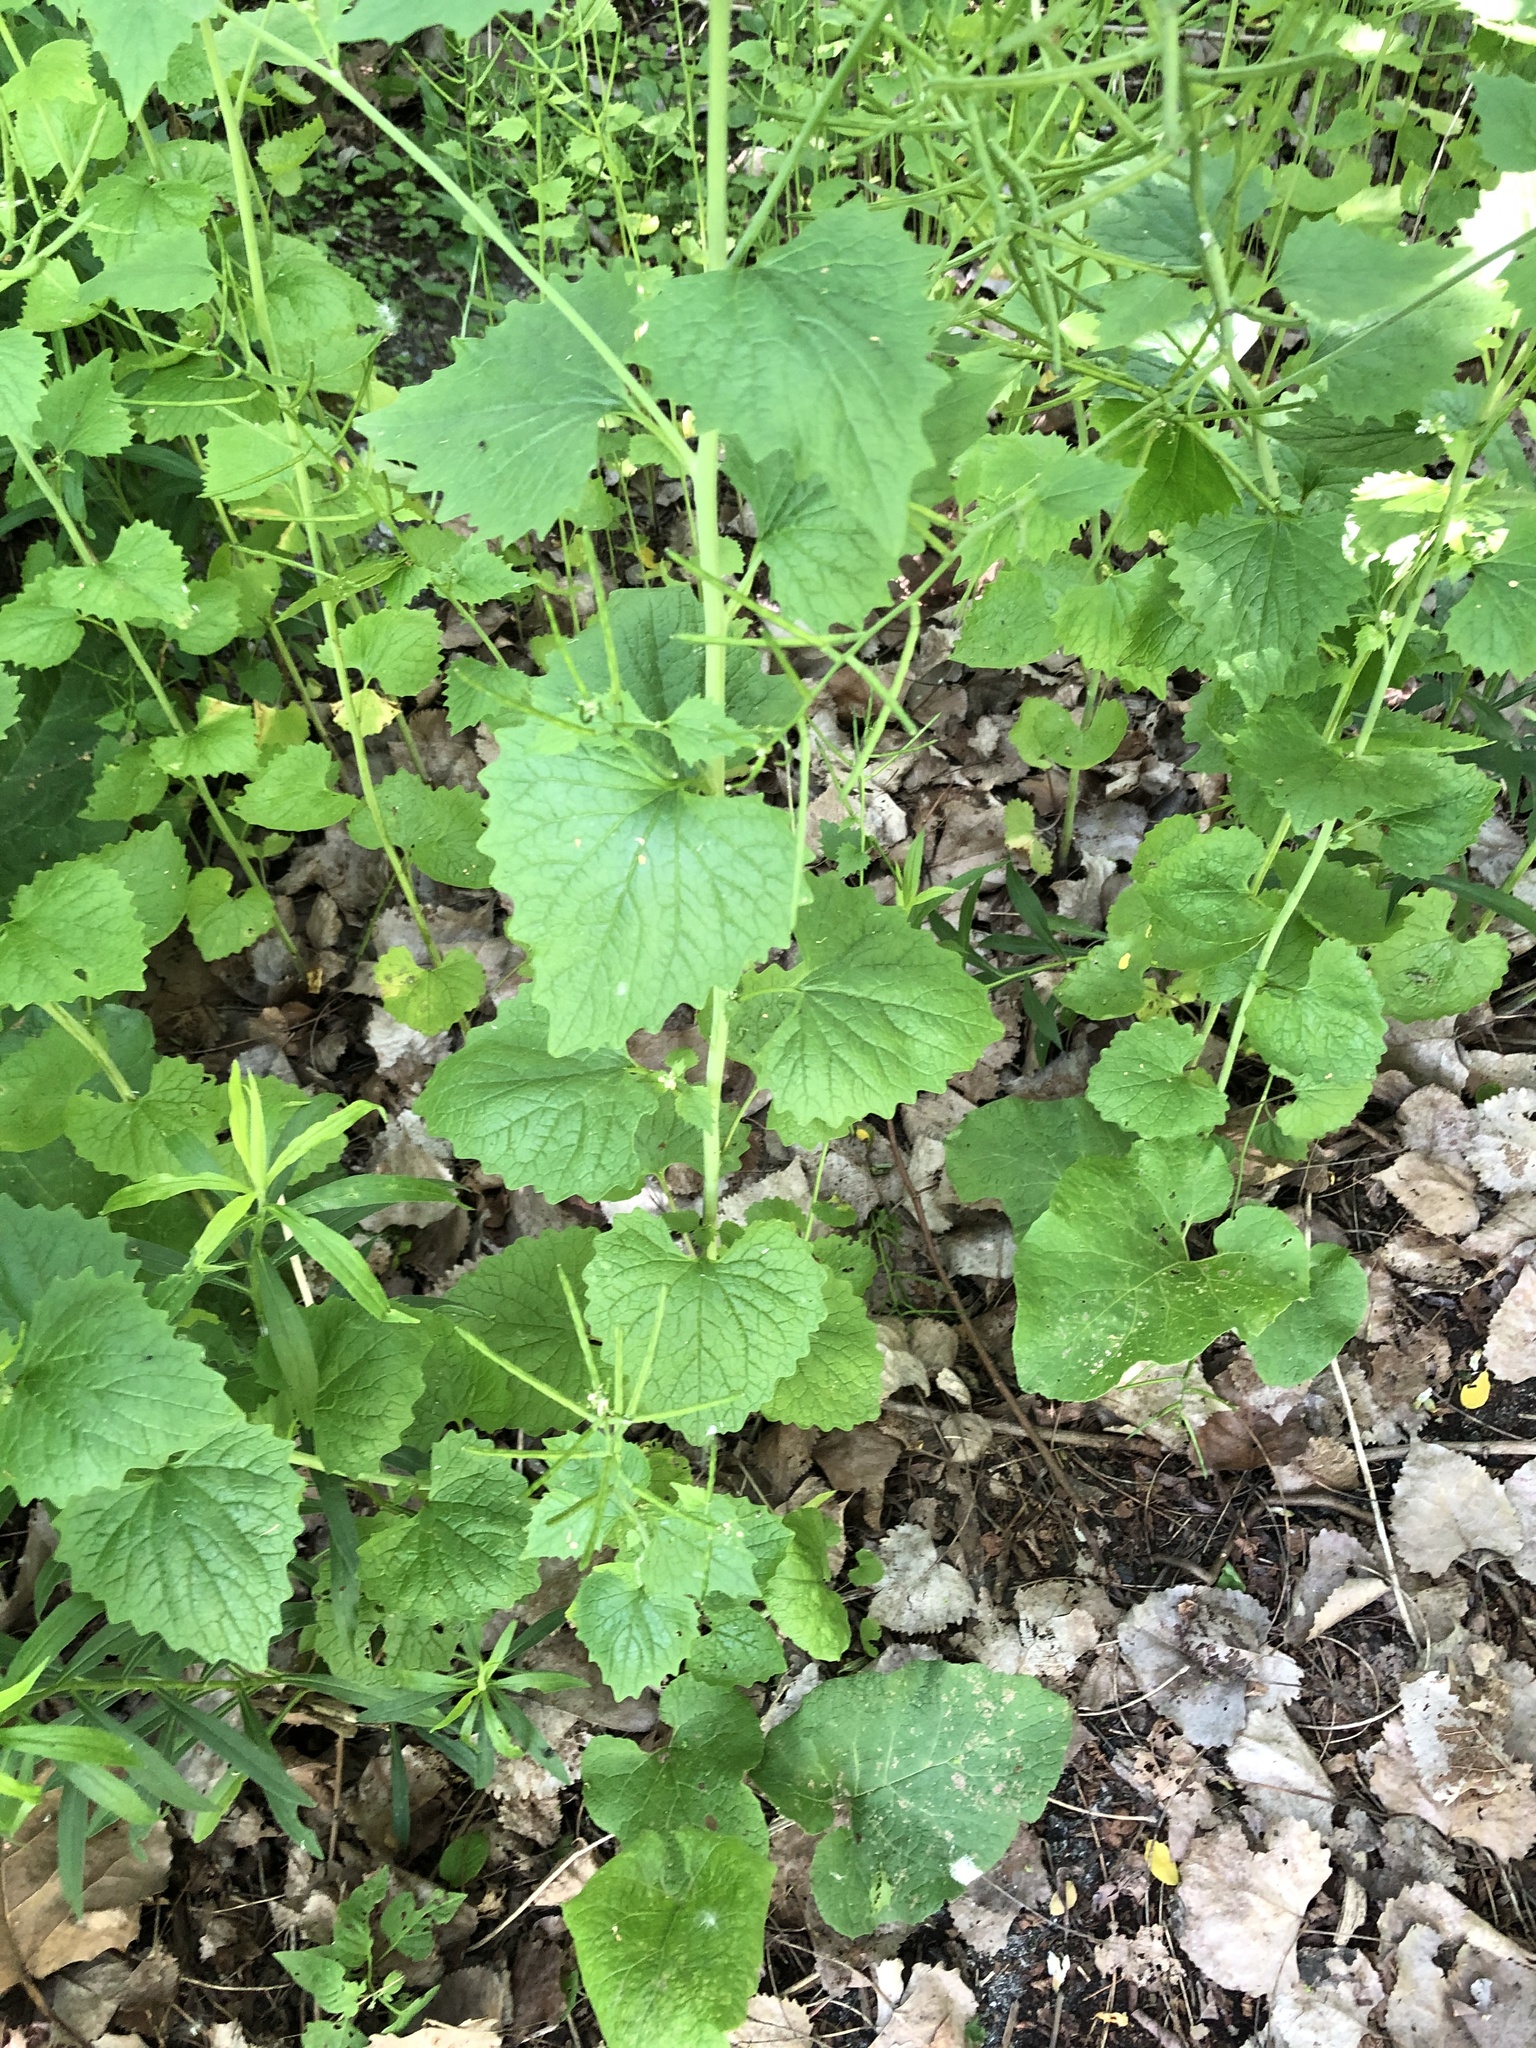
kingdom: Plantae
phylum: Tracheophyta
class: Magnoliopsida
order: Brassicales
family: Brassicaceae
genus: Alliaria
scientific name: Alliaria petiolata
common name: Garlic mustard
